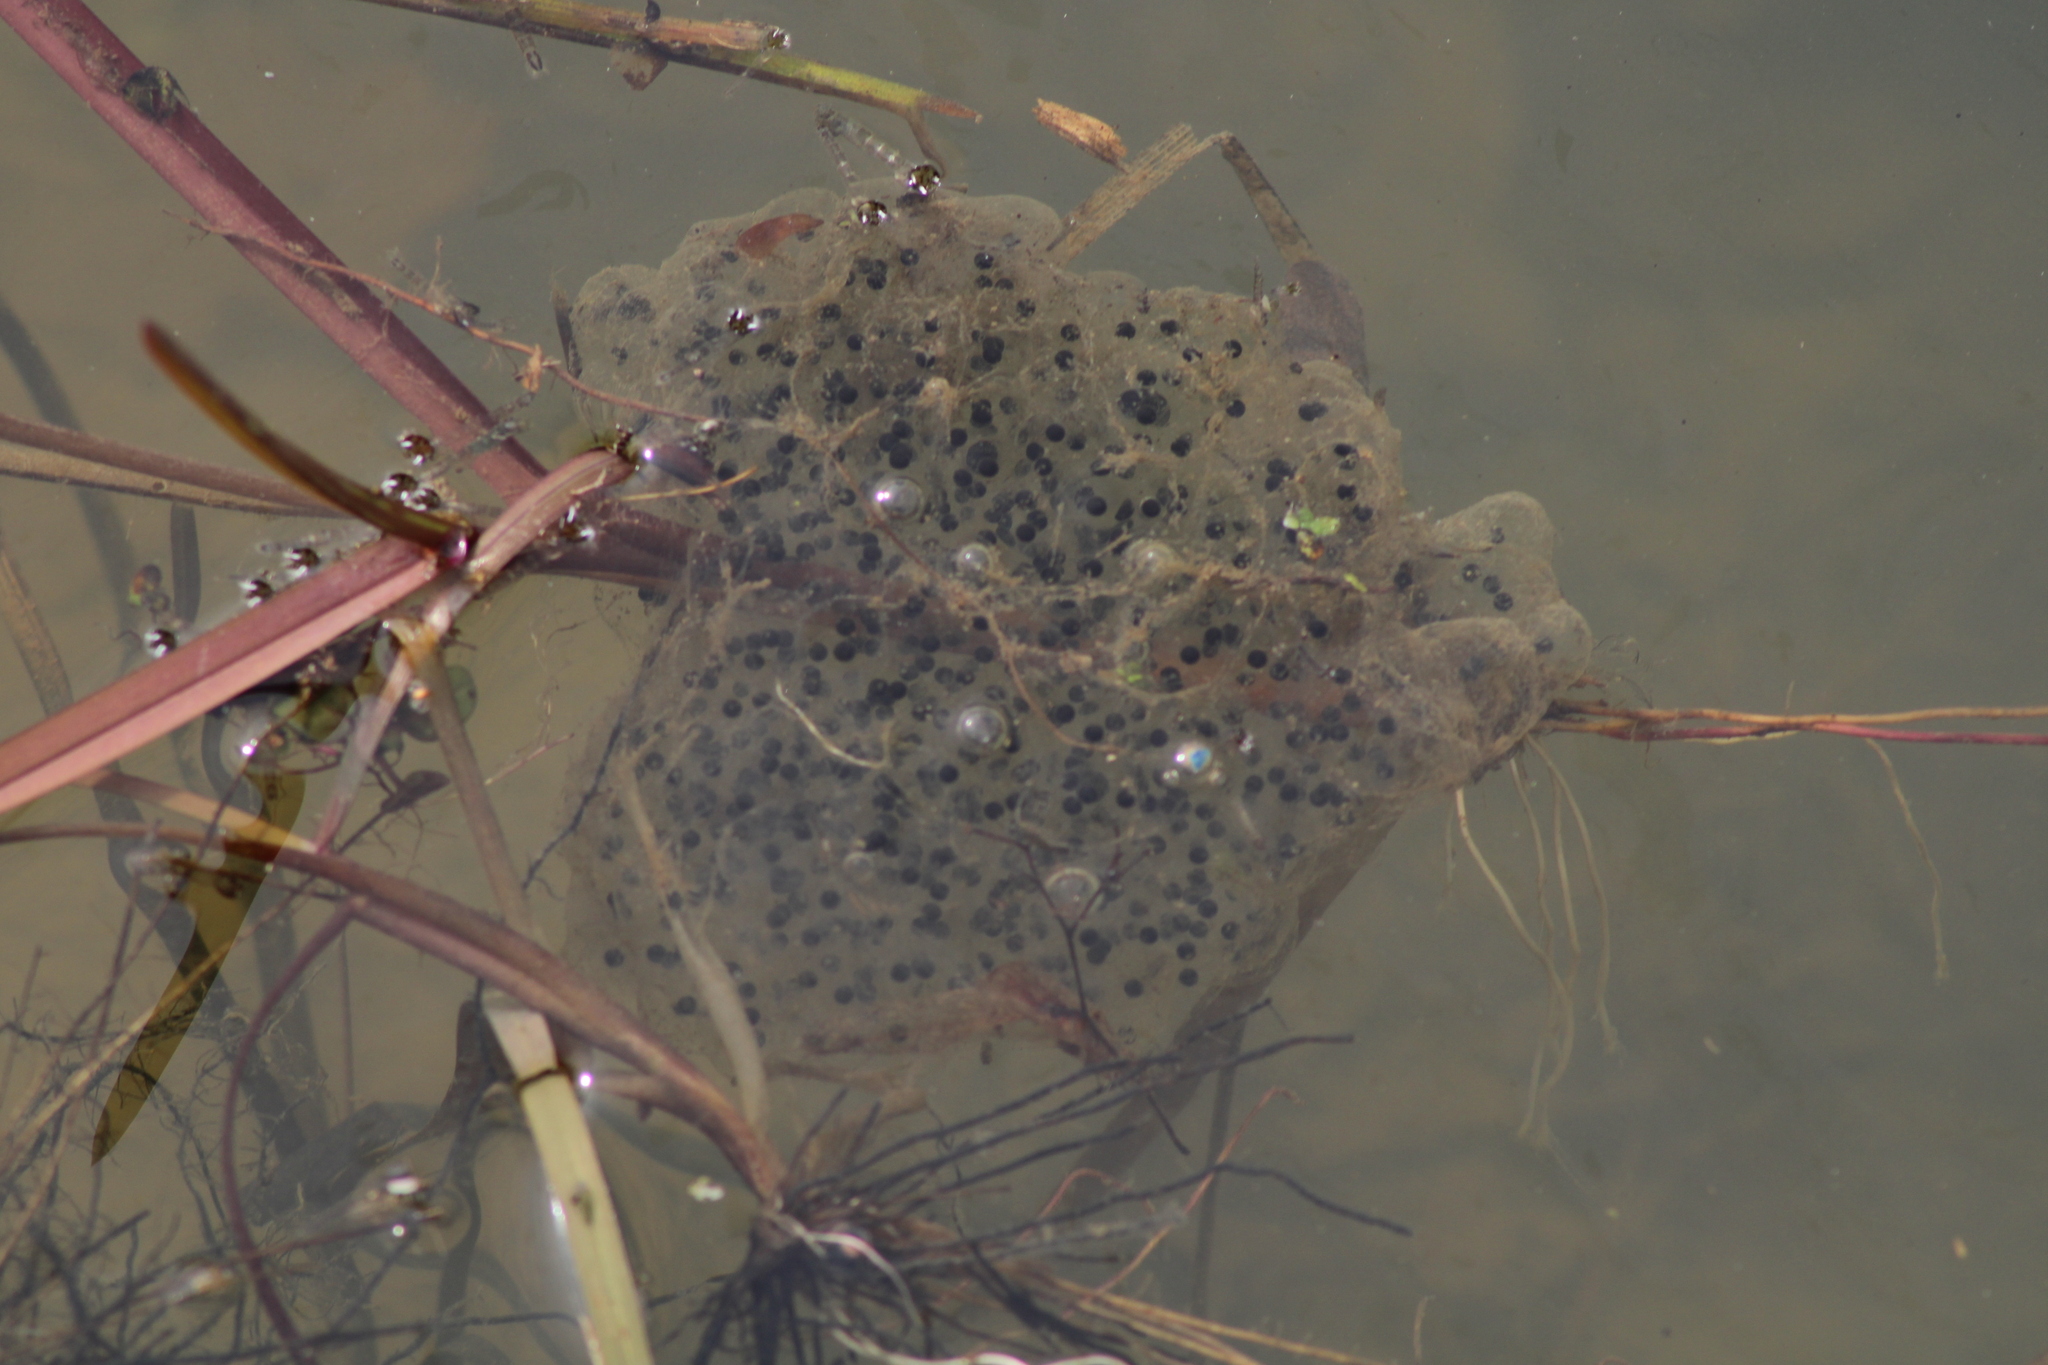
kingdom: Animalia
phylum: Chordata
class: Amphibia
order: Anura
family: Ranidae
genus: Rana
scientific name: Rana dalmatina
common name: Agile frog
